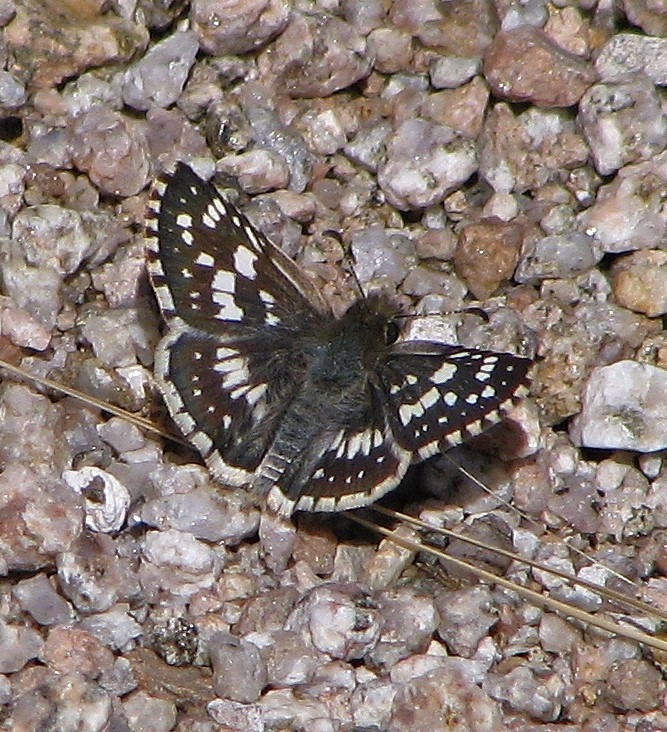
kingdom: Animalia
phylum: Arthropoda
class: Insecta
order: Lepidoptera
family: Hesperiidae
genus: Burnsius
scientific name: Burnsius orcynoides
